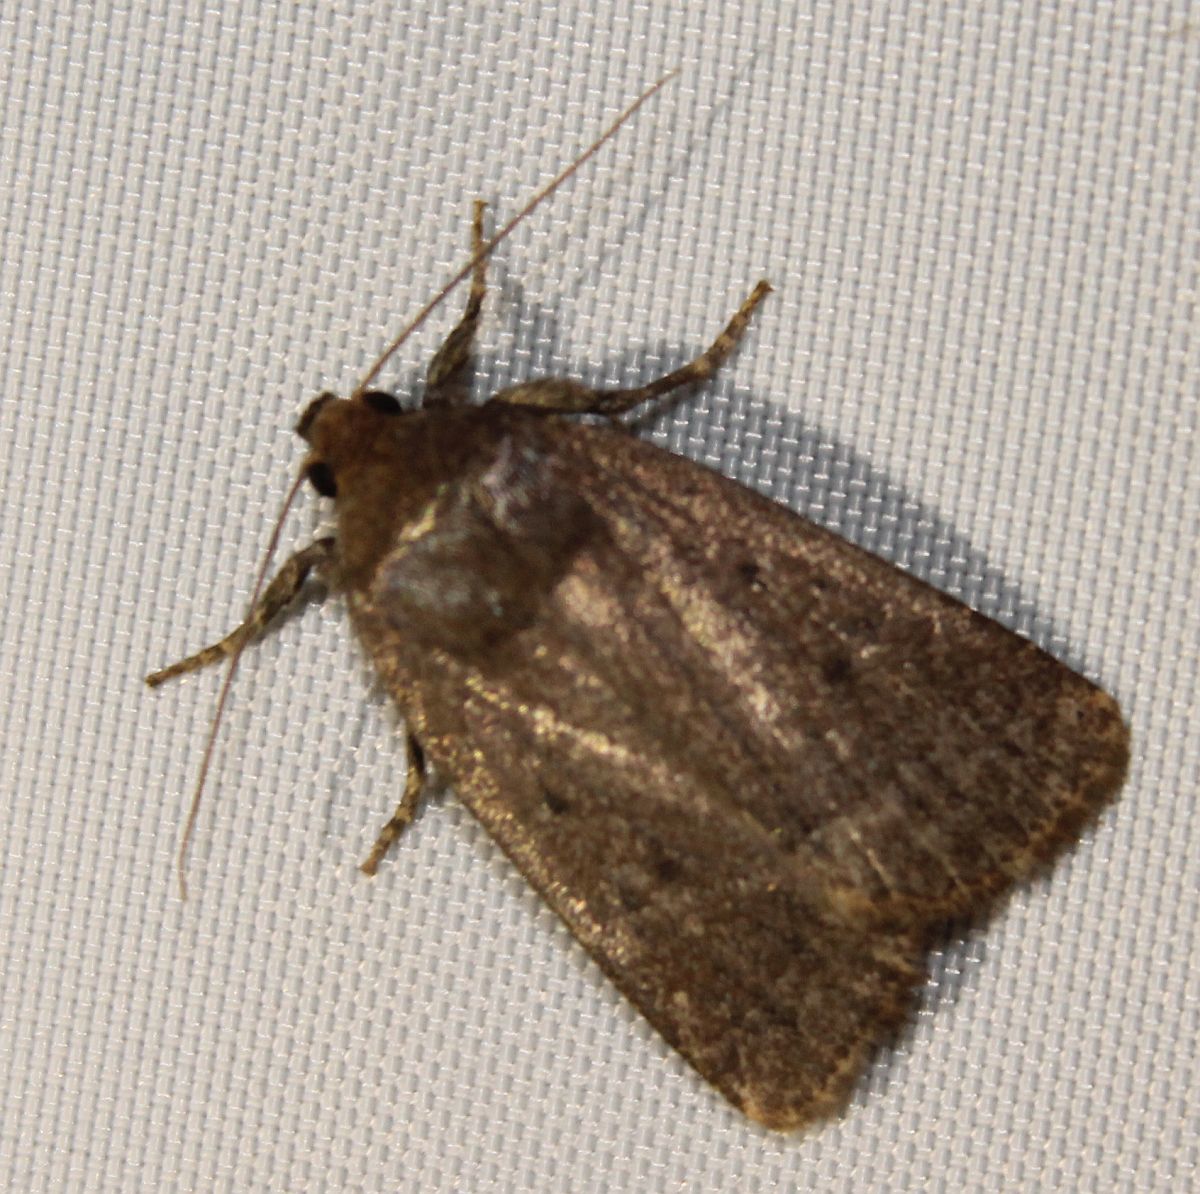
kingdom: Animalia
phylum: Arthropoda
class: Insecta
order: Lepidoptera
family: Noctuidae
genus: Amphipyra
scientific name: Amphipyra tragopoginis
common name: Mouse moth
